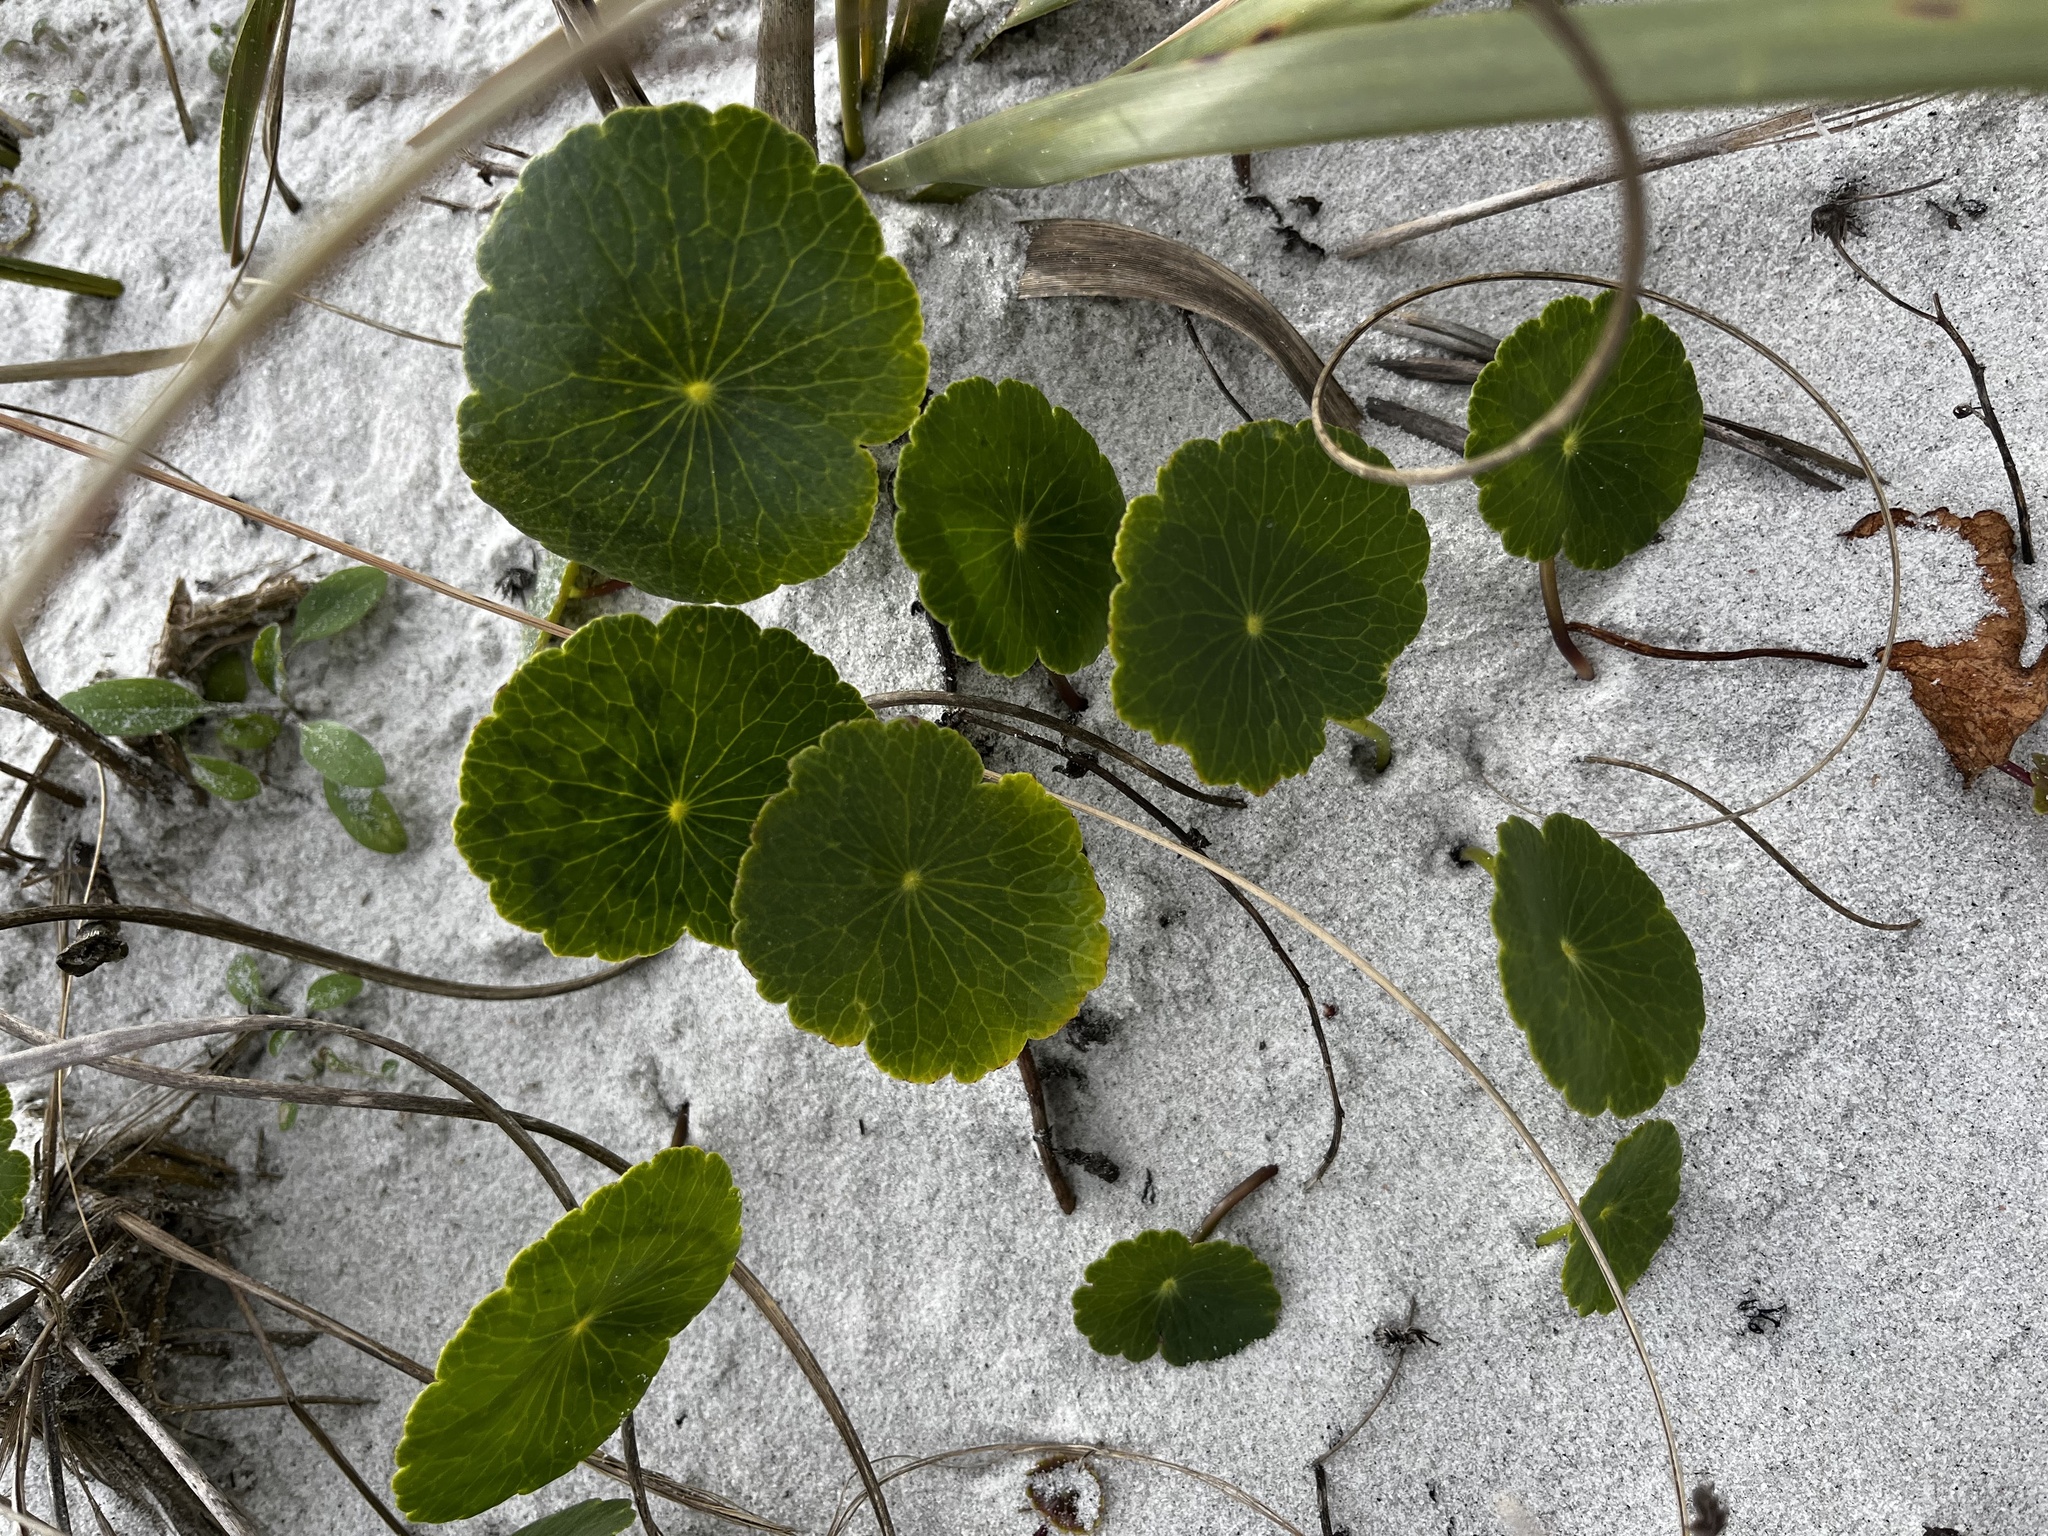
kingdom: Plantae
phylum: Tracheophyta
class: Magnoliopsida
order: Apiales
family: Araliaceae
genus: Hydrocotyle
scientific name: Hydrocotyle bonariensis
